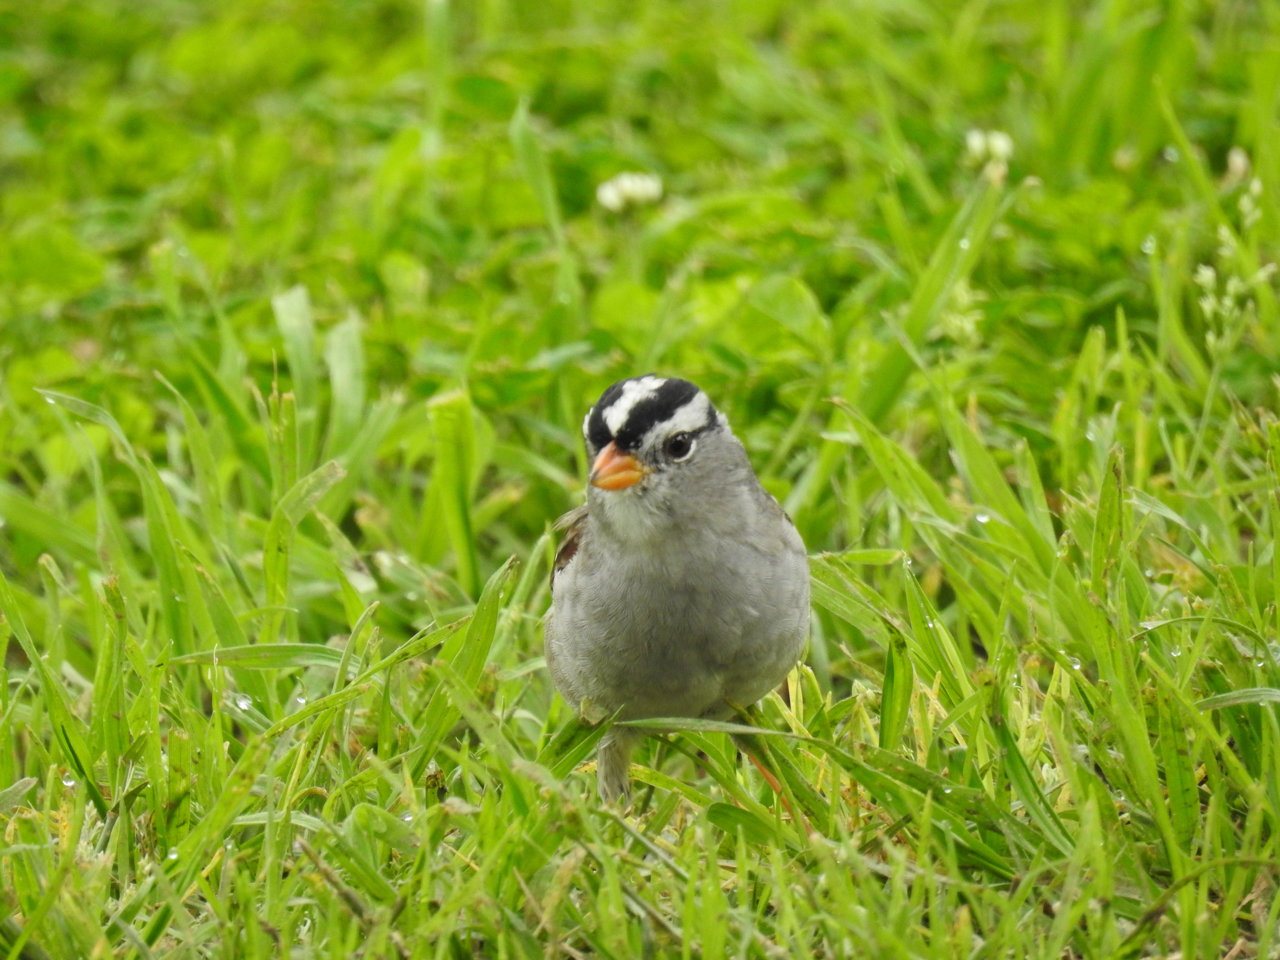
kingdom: Animalia
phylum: Chordata
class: Aves
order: Passeriformes
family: Passerellidae
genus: Zonotrichia
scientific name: Zonotrichia leucophrys
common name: White-crowned sparrow
